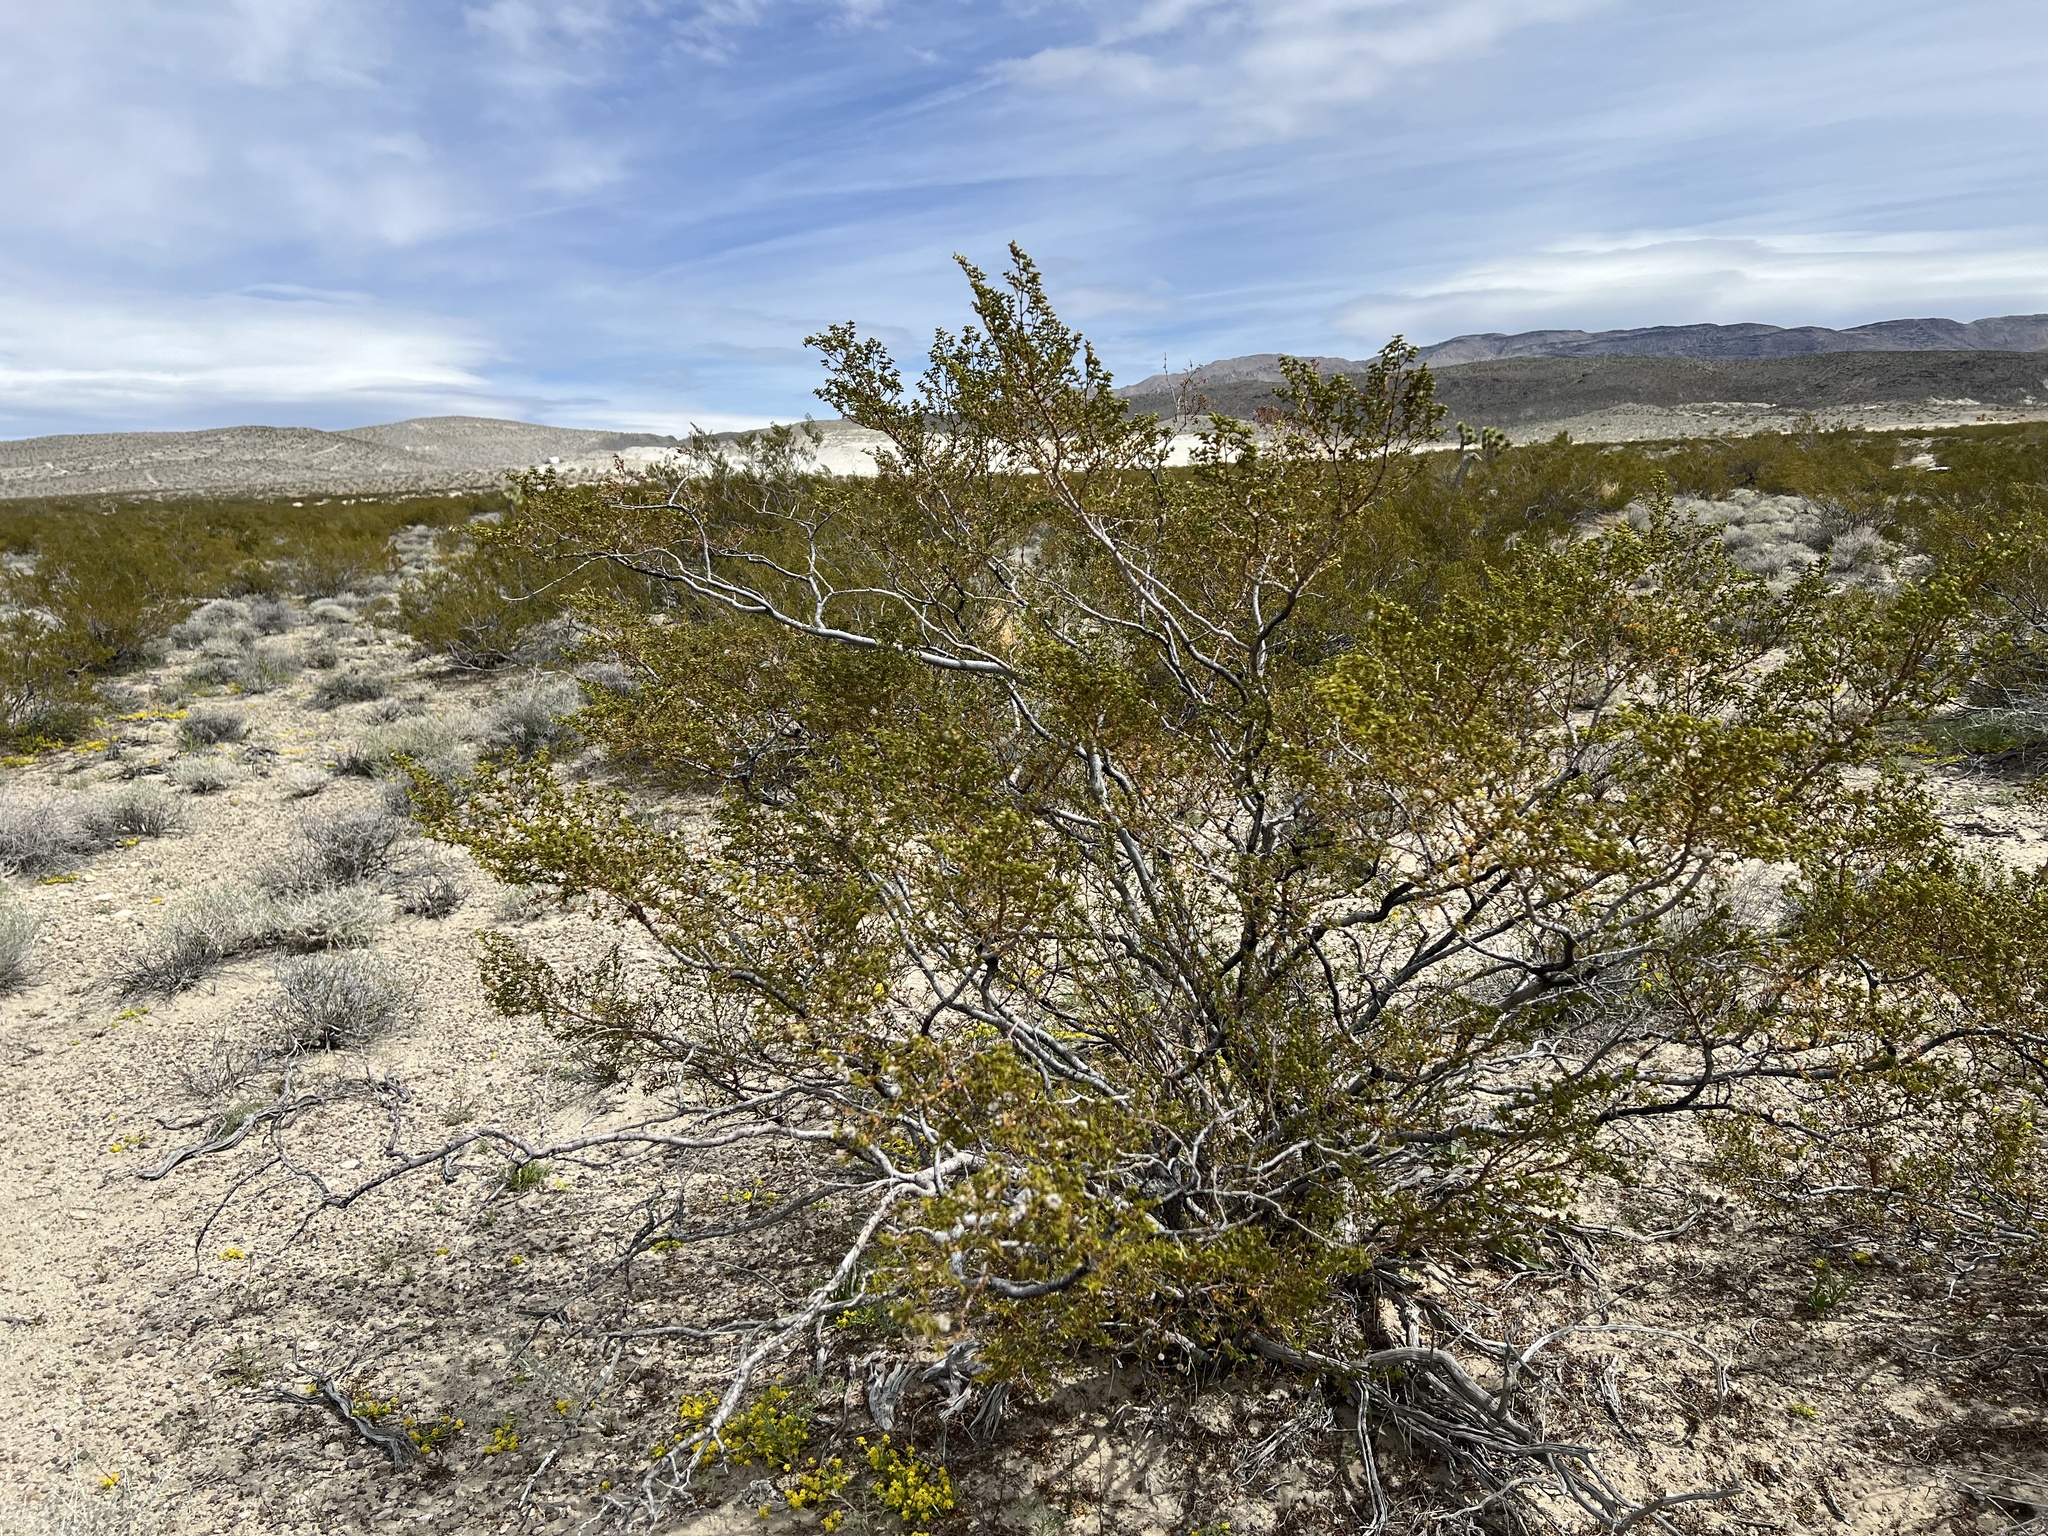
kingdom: Plantae
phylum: Tracheophyta
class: Magnoliopsida
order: Zygophyllales
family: Zygophyllaceae
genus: Larrea
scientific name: Larrea tridentata
